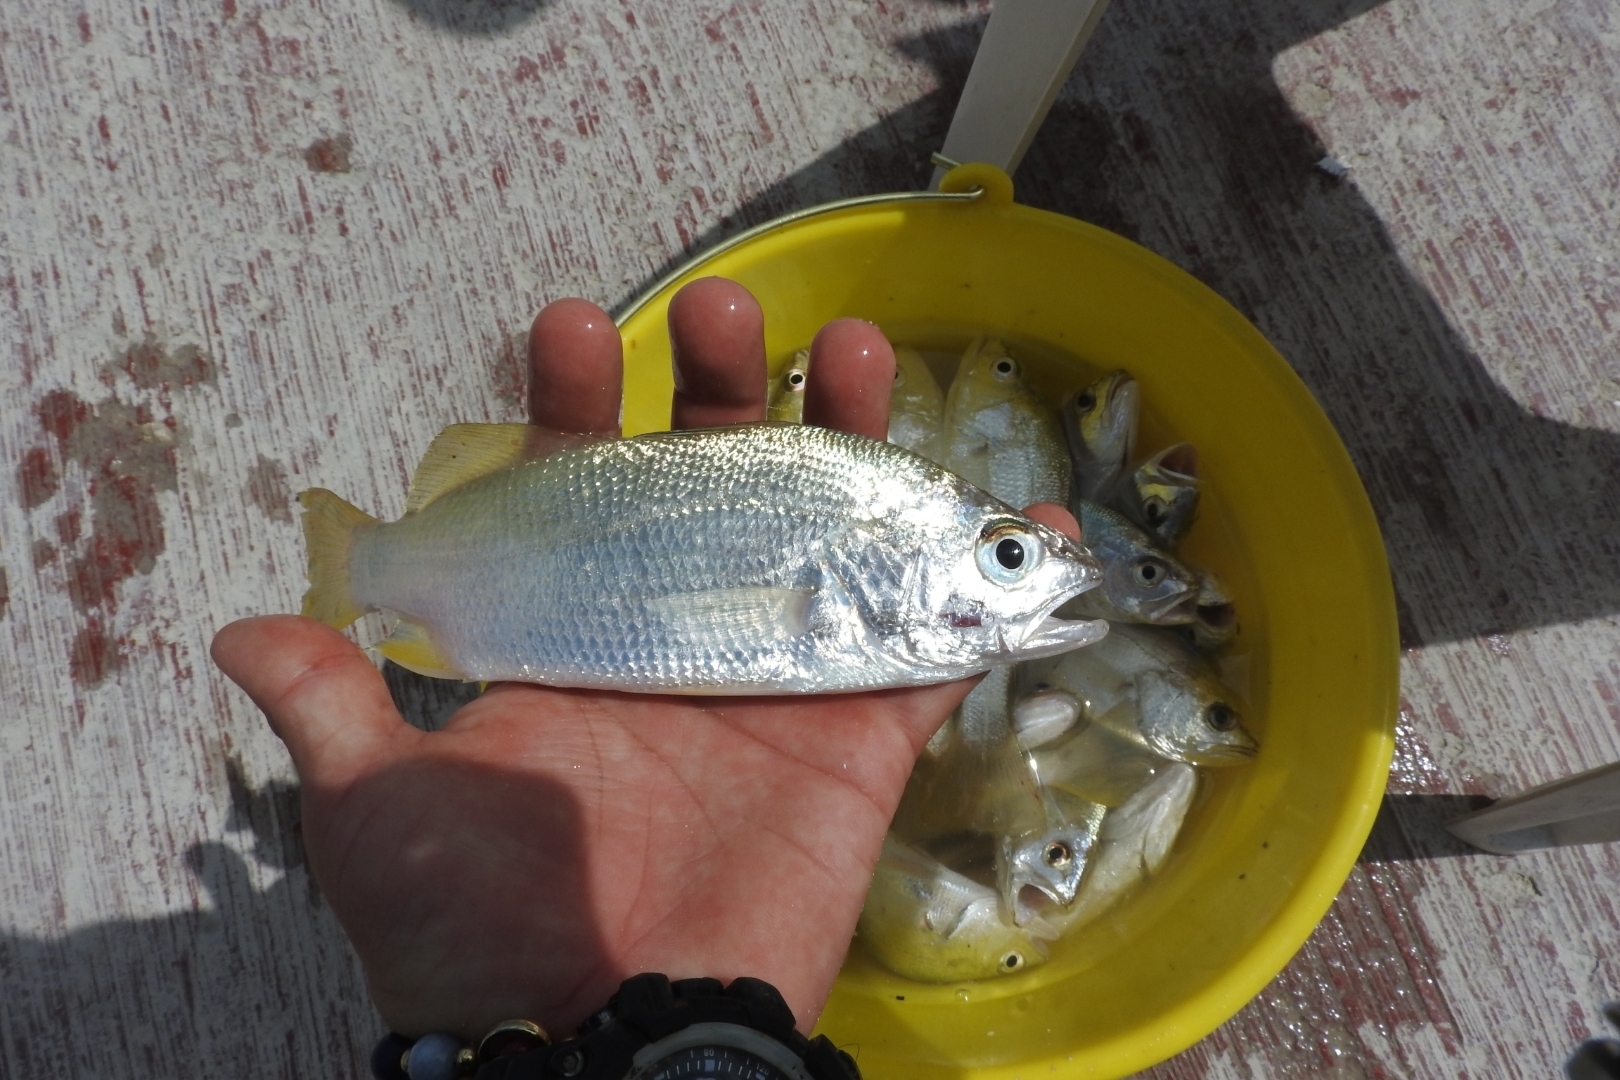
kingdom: Animalia
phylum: Chordata
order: Perciformes
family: Sciaenidae
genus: Bairdiella
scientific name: Bairdiella chrysoura
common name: Silver perch
